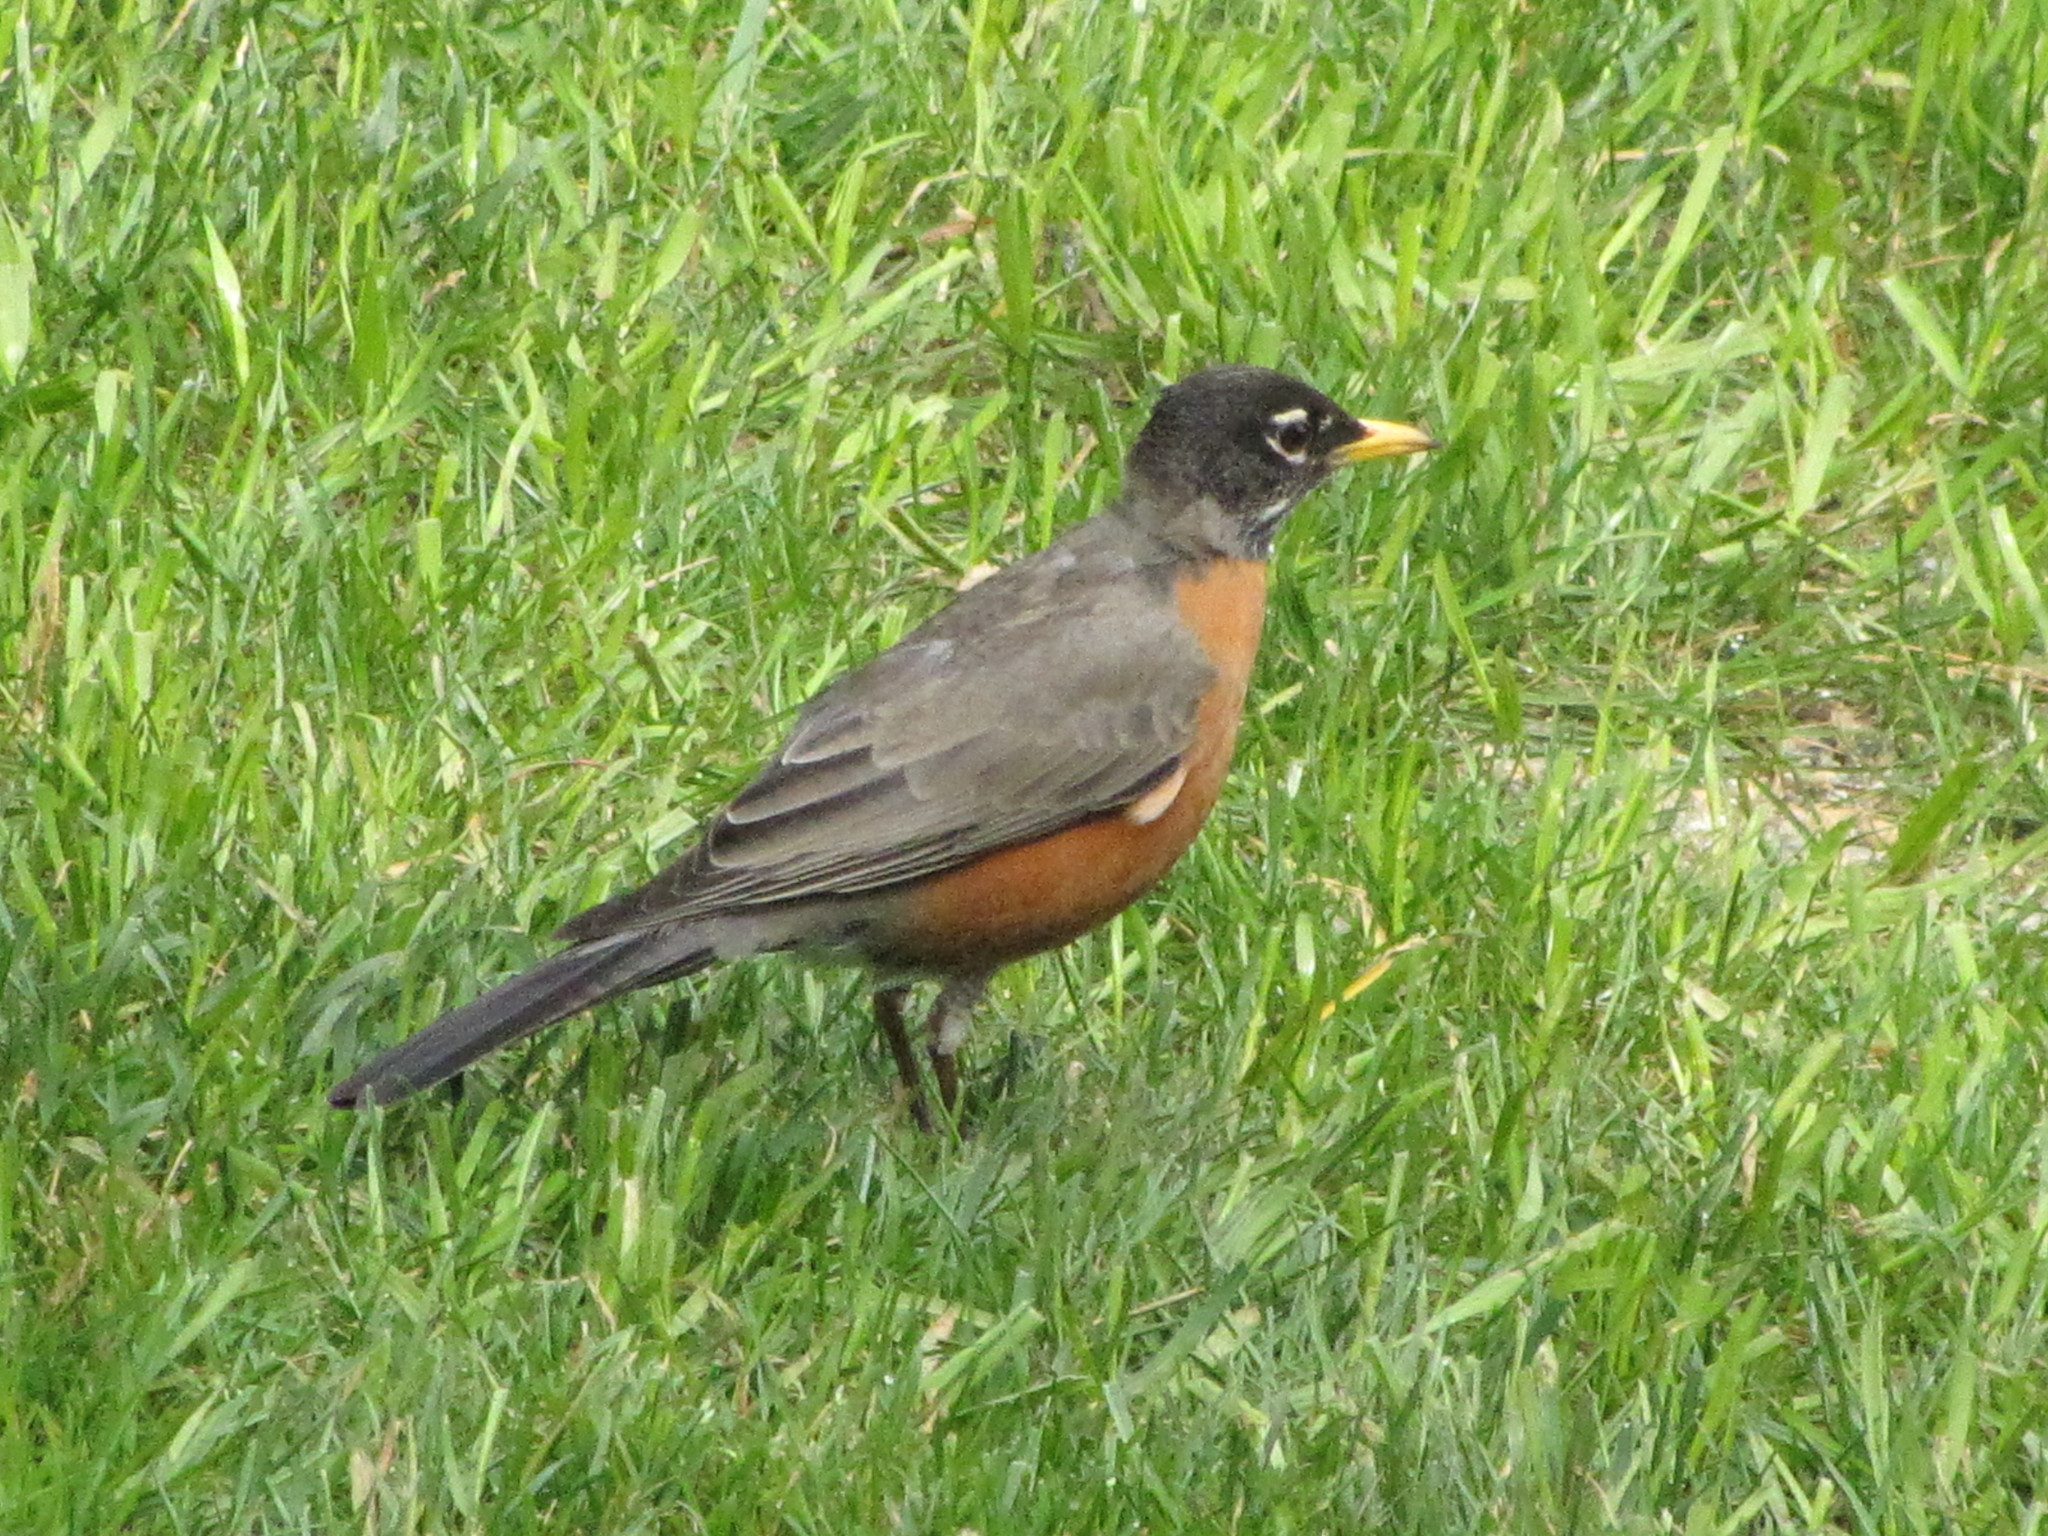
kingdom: Animalia
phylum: Chordata
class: Aves
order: Passeriformes
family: Turdidae
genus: Turdus
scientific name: Turdus migratorius
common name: American robin
